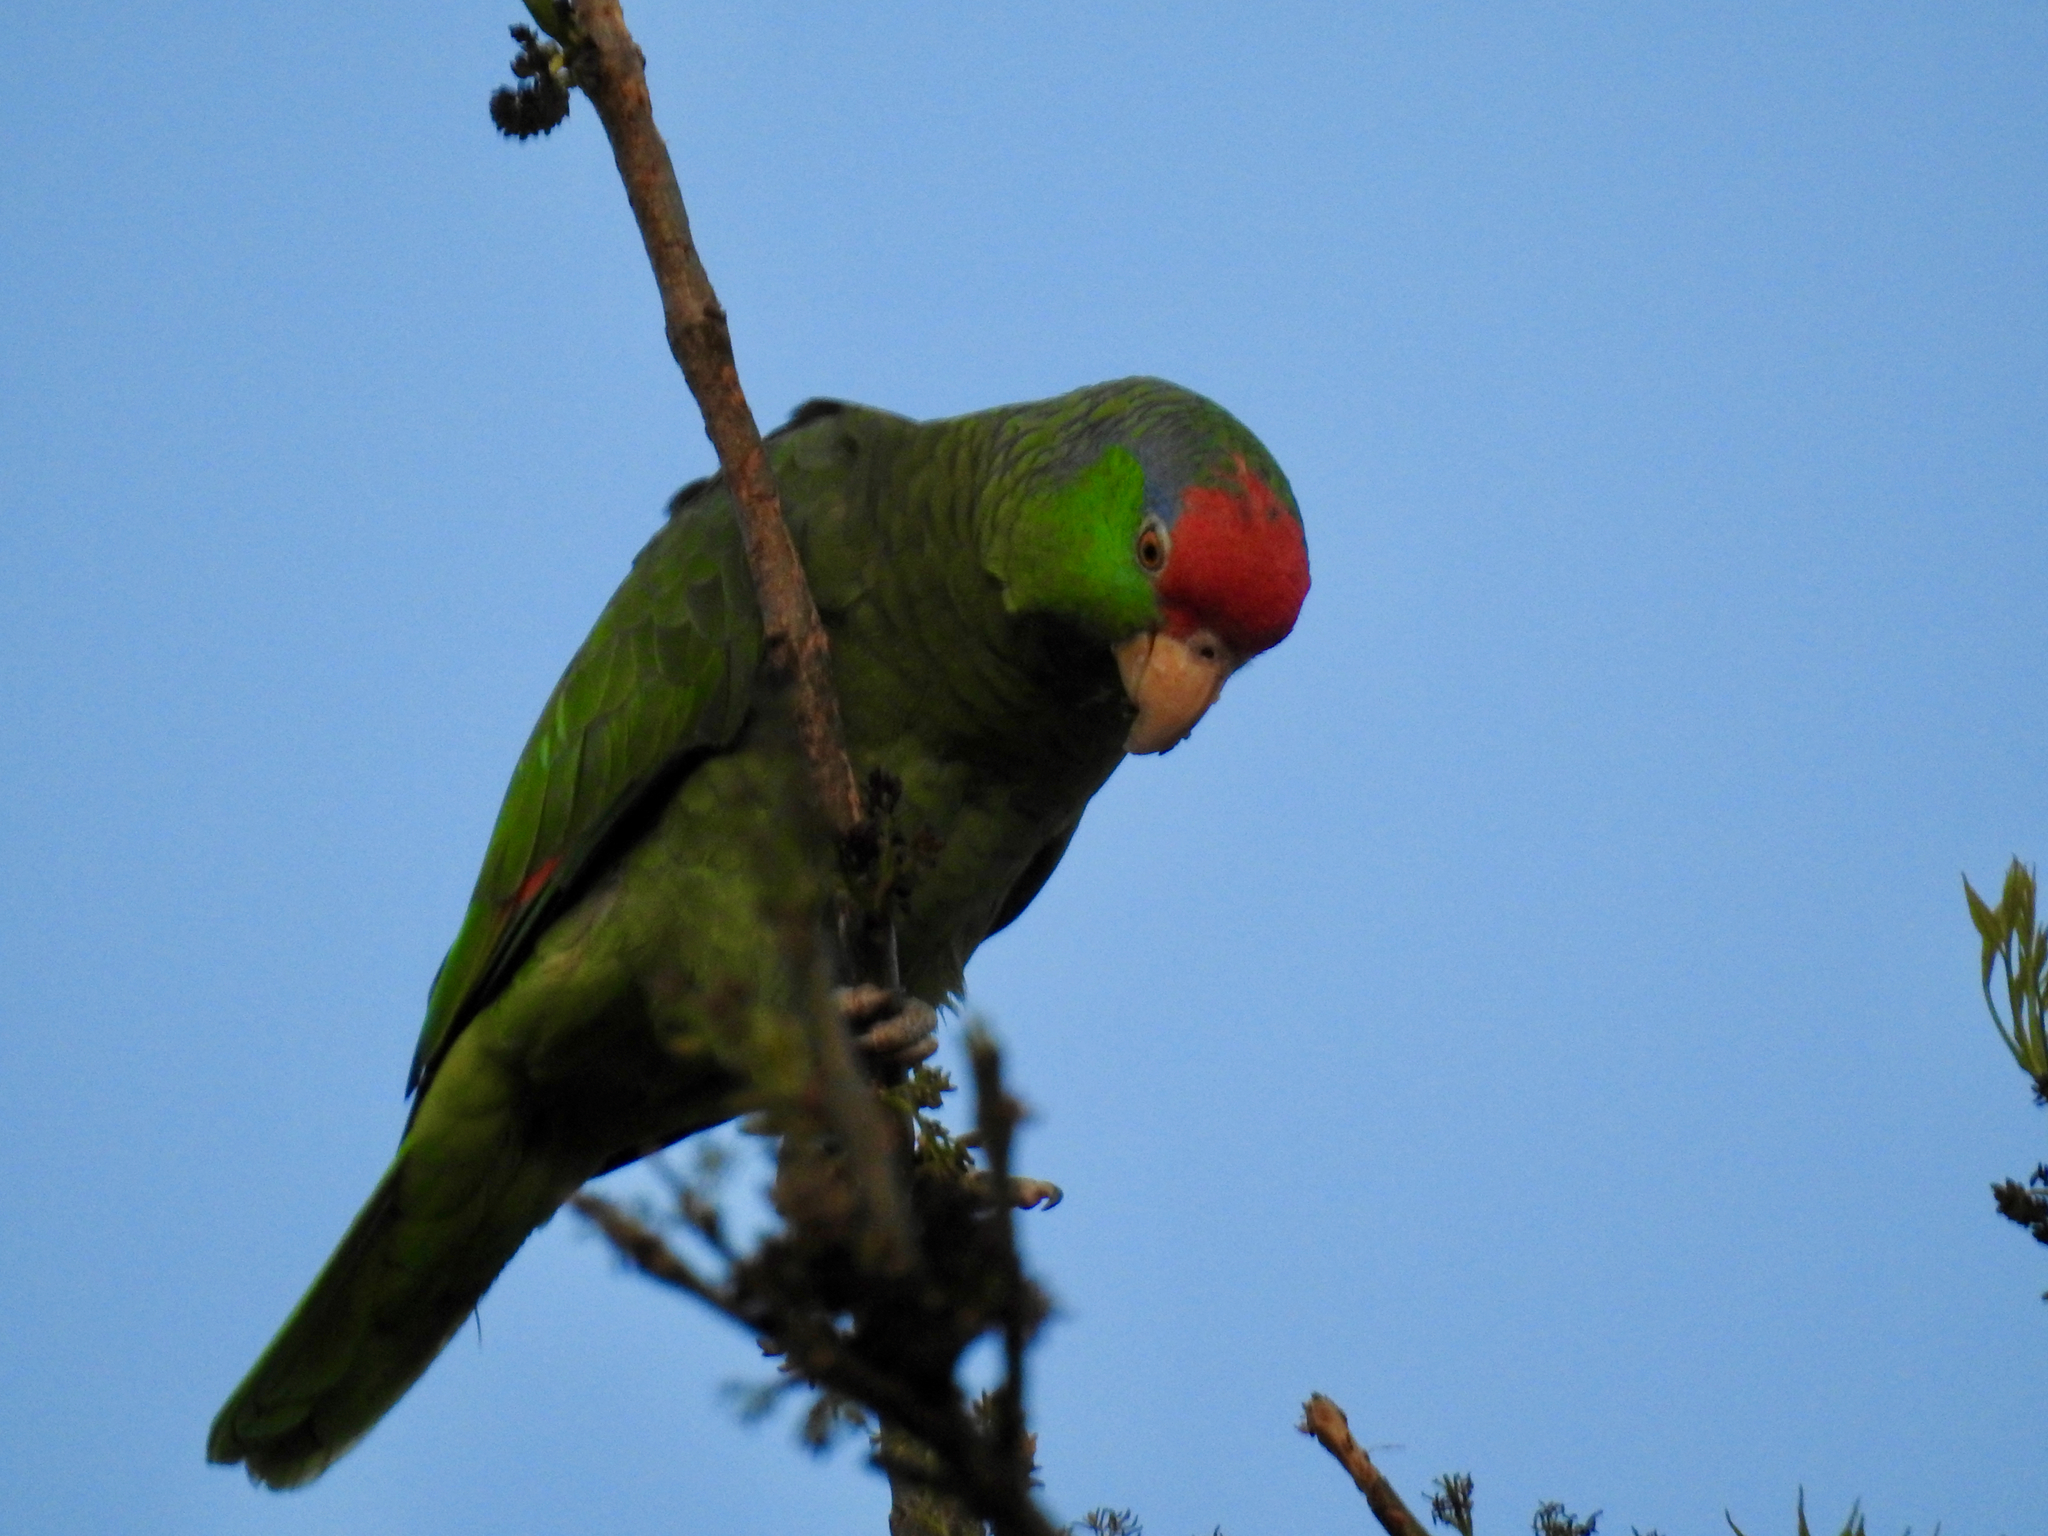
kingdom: Animalia
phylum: Chordata
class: Aves
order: Psittaciformes
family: Psittacidae
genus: Amazona
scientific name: Amazona viridigenalis
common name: Red-crowned amazon
